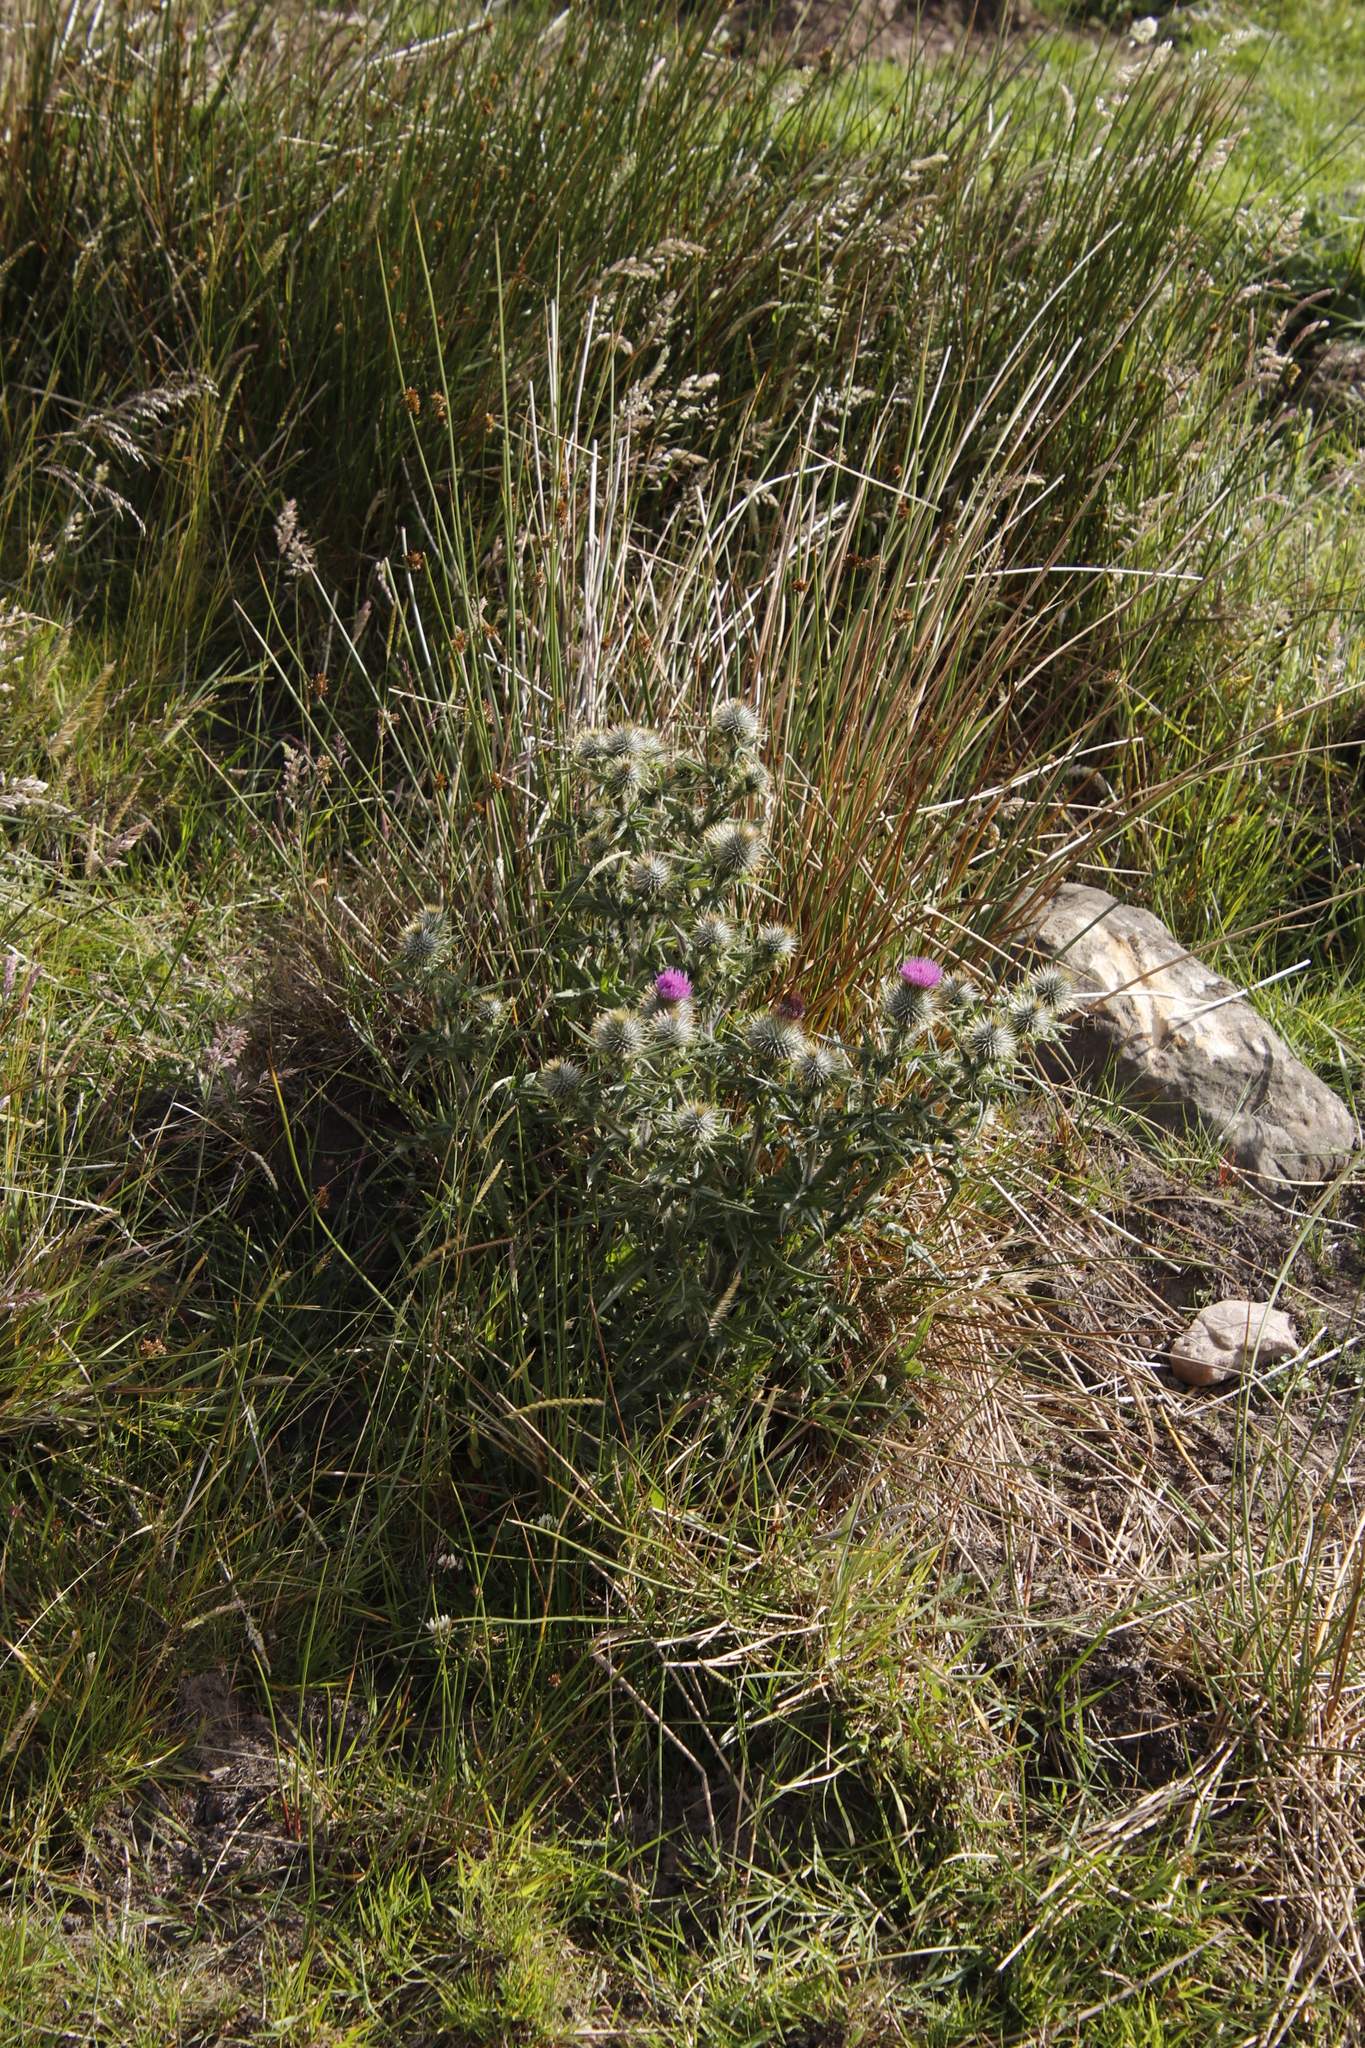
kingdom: Plantae
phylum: Tracheophyta
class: Magnoliopsida
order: Asterales
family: Asteraceae
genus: Cirsium
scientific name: Cirsium vulgare
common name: Bull thistle
